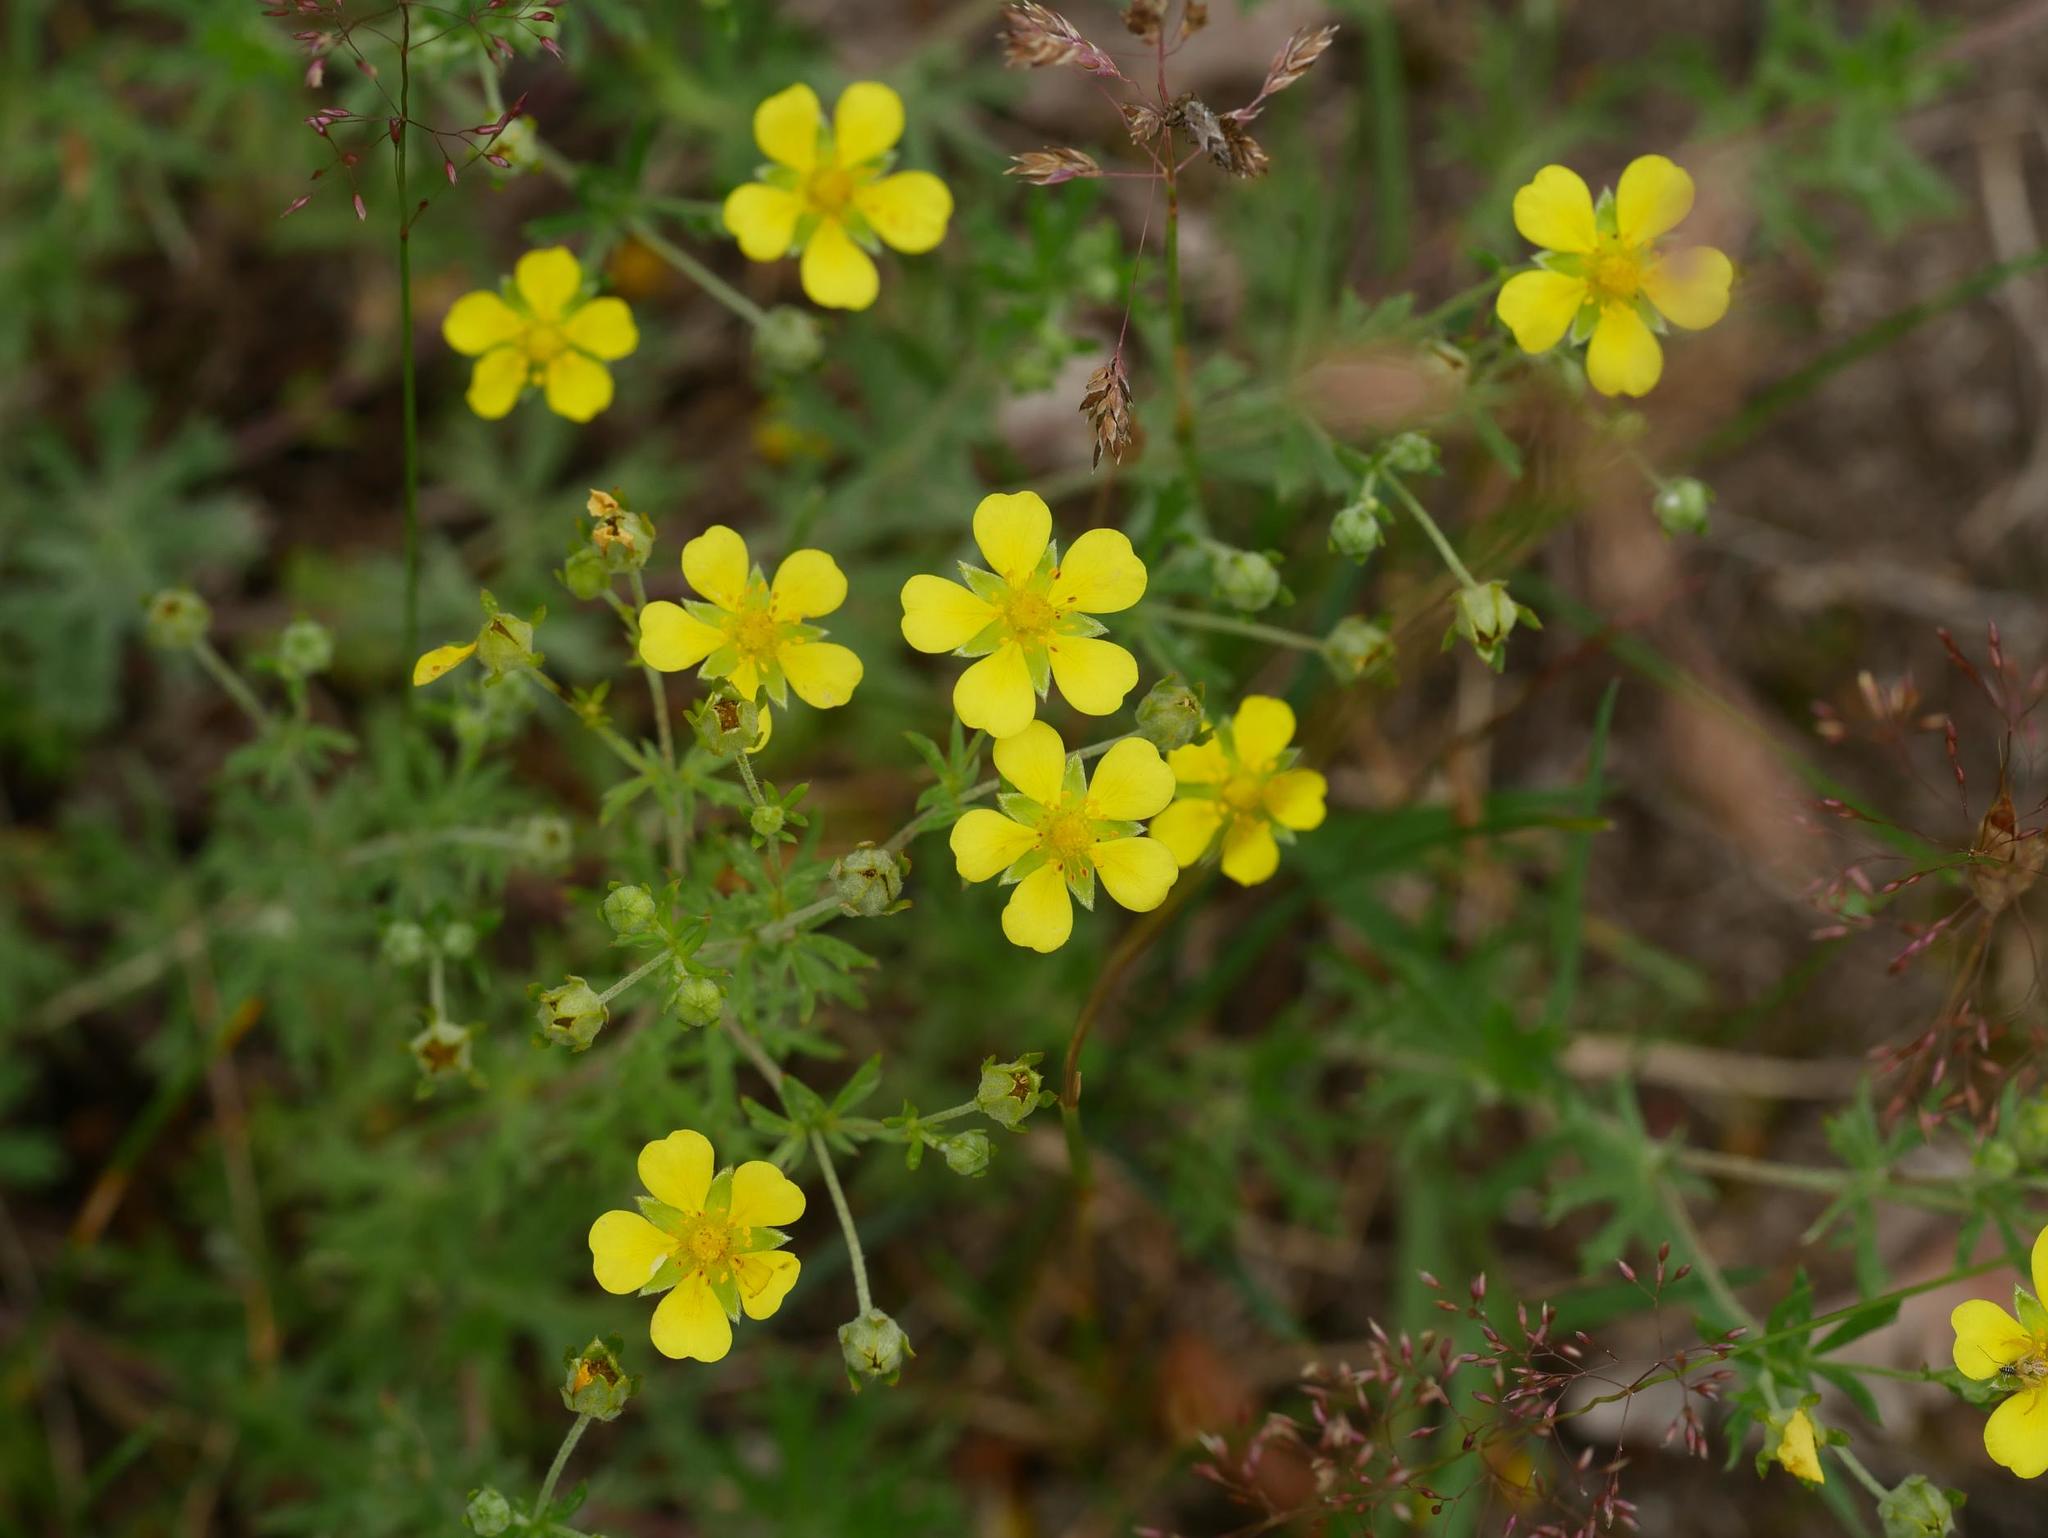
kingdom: Plantae
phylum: Tracheophyta
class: Magnoliopsida
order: Rosales
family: Rosaceae
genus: Potentilla
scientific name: Potentilla argentea
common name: Hoary cinquefoil
